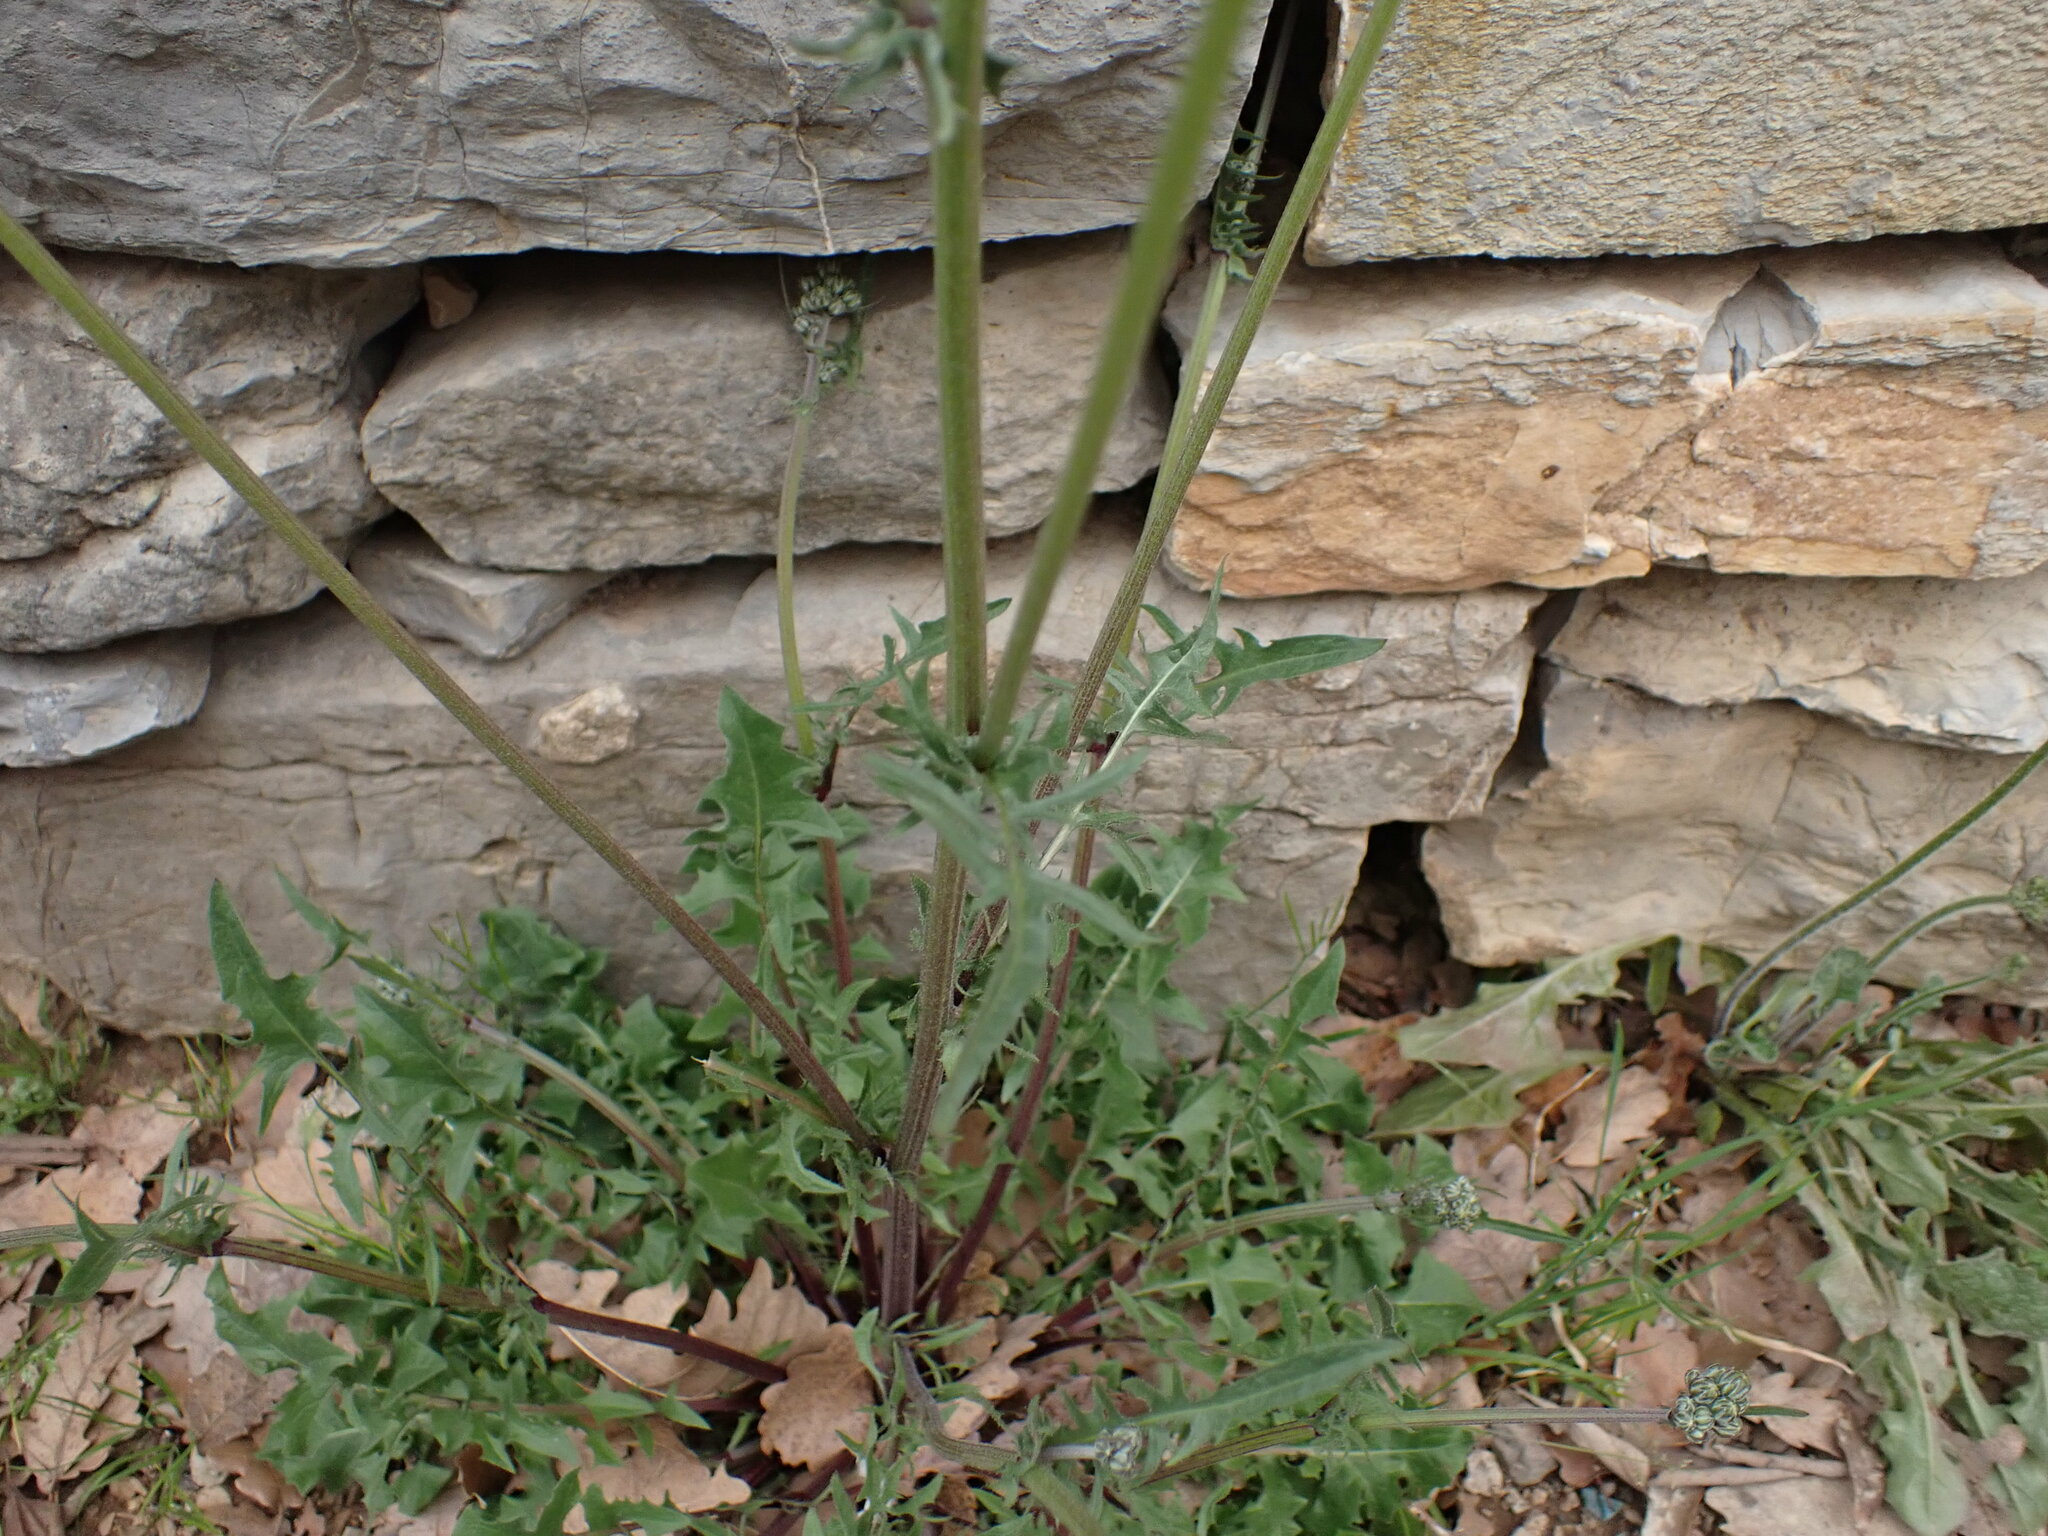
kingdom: Plantae
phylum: Tracheophyta
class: Magnoliopsida
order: Asterales
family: Asteraceae
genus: Crepis
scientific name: Crepis vesicaria
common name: Beaked hawksbeard
